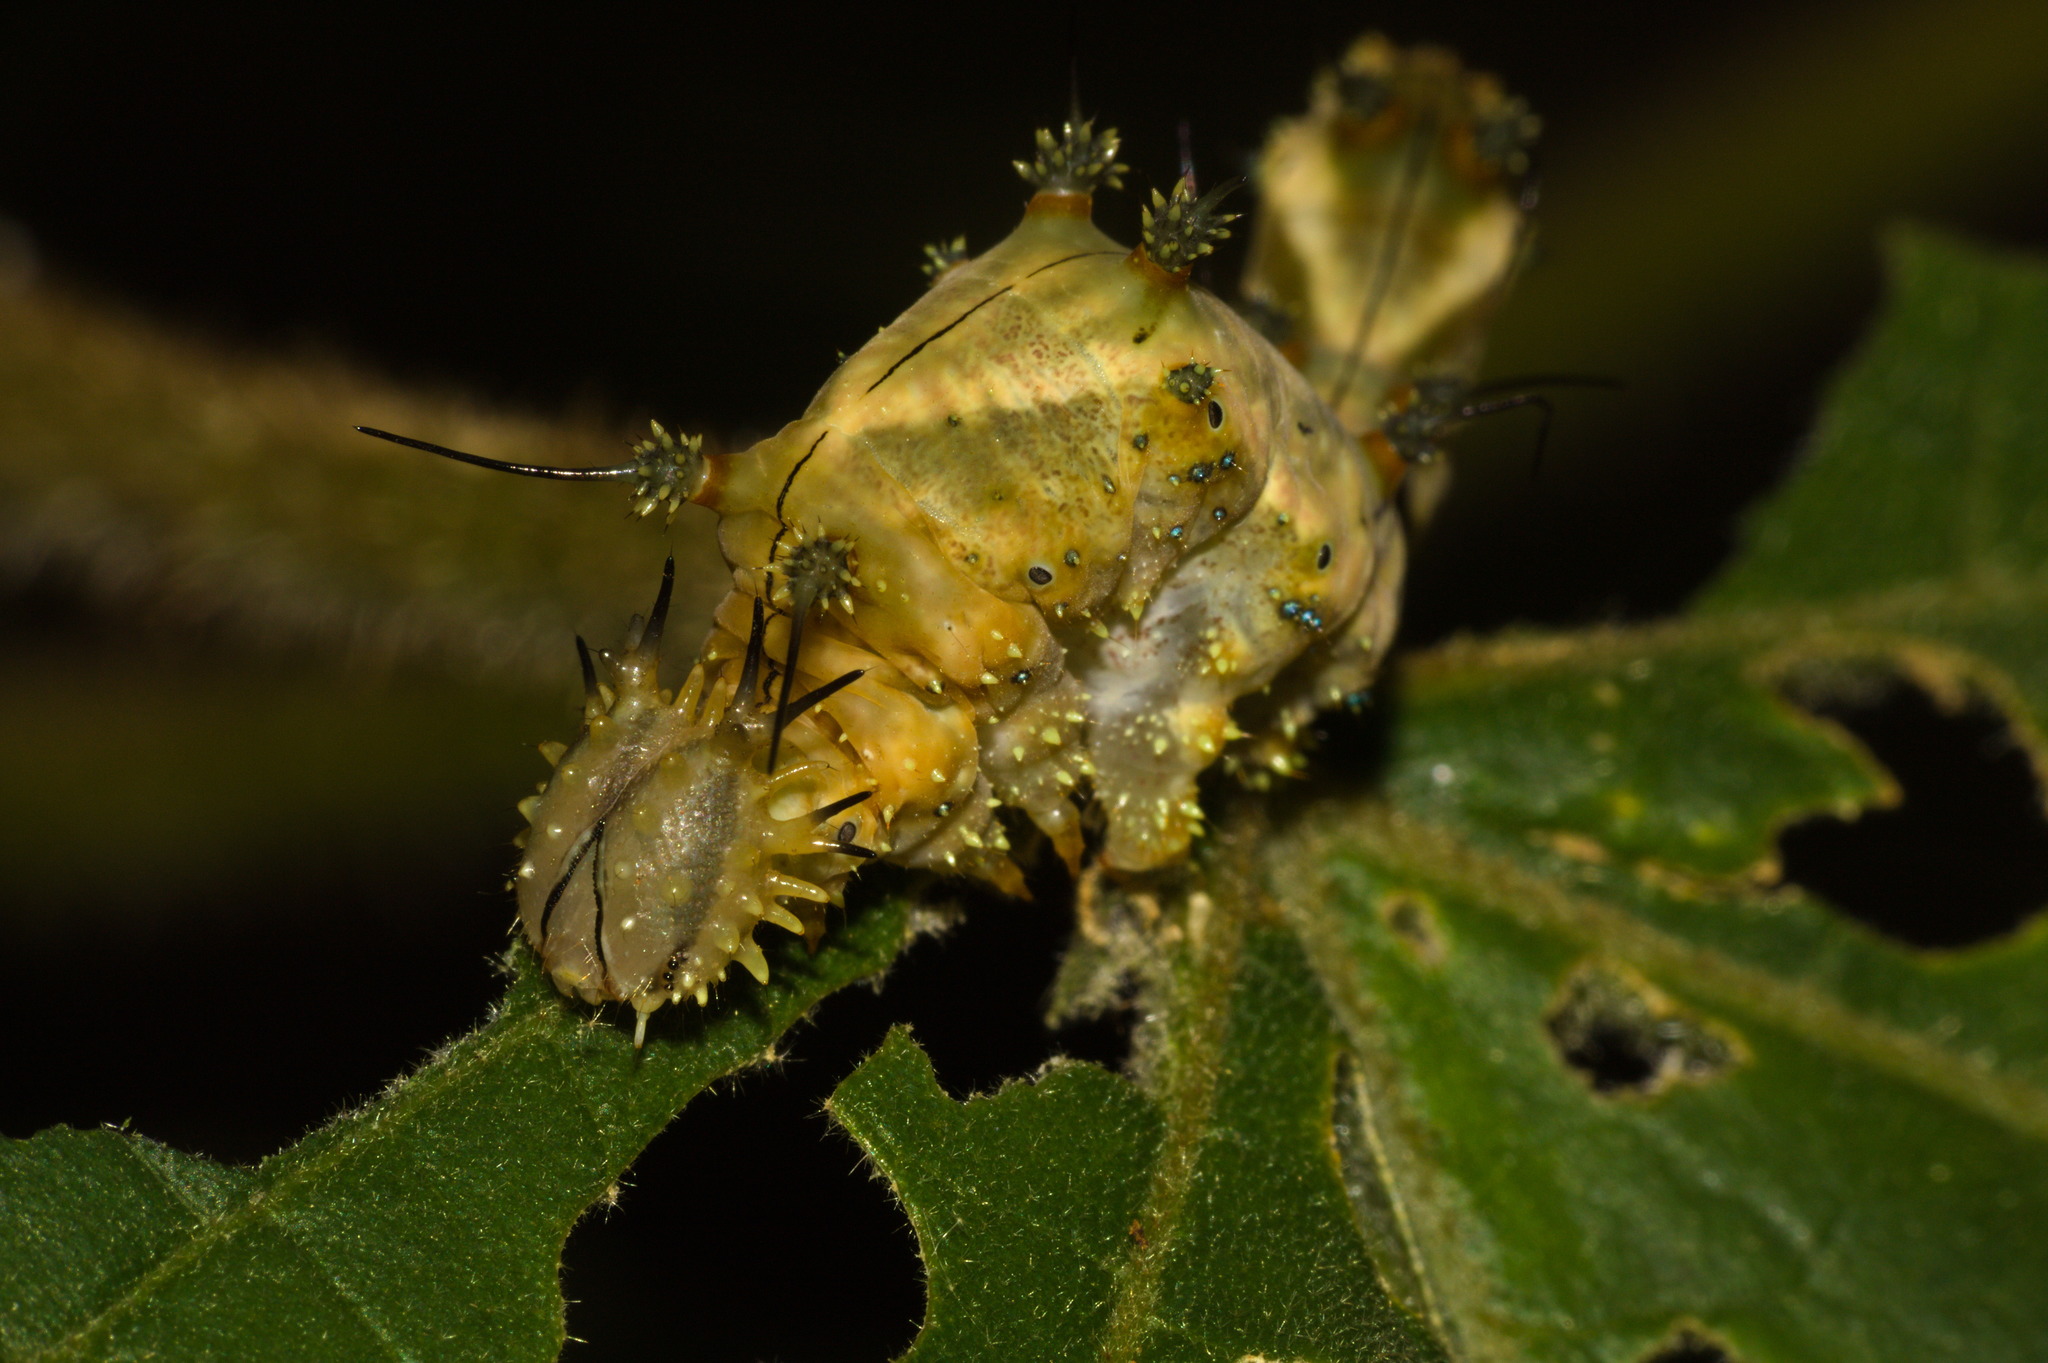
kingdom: Animalia
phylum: Arthropoda
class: Insecta
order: Lepidoptera
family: Nymphalidae
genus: Hypna
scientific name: Hypna clytemnestra
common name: Silver-studded leafwing
